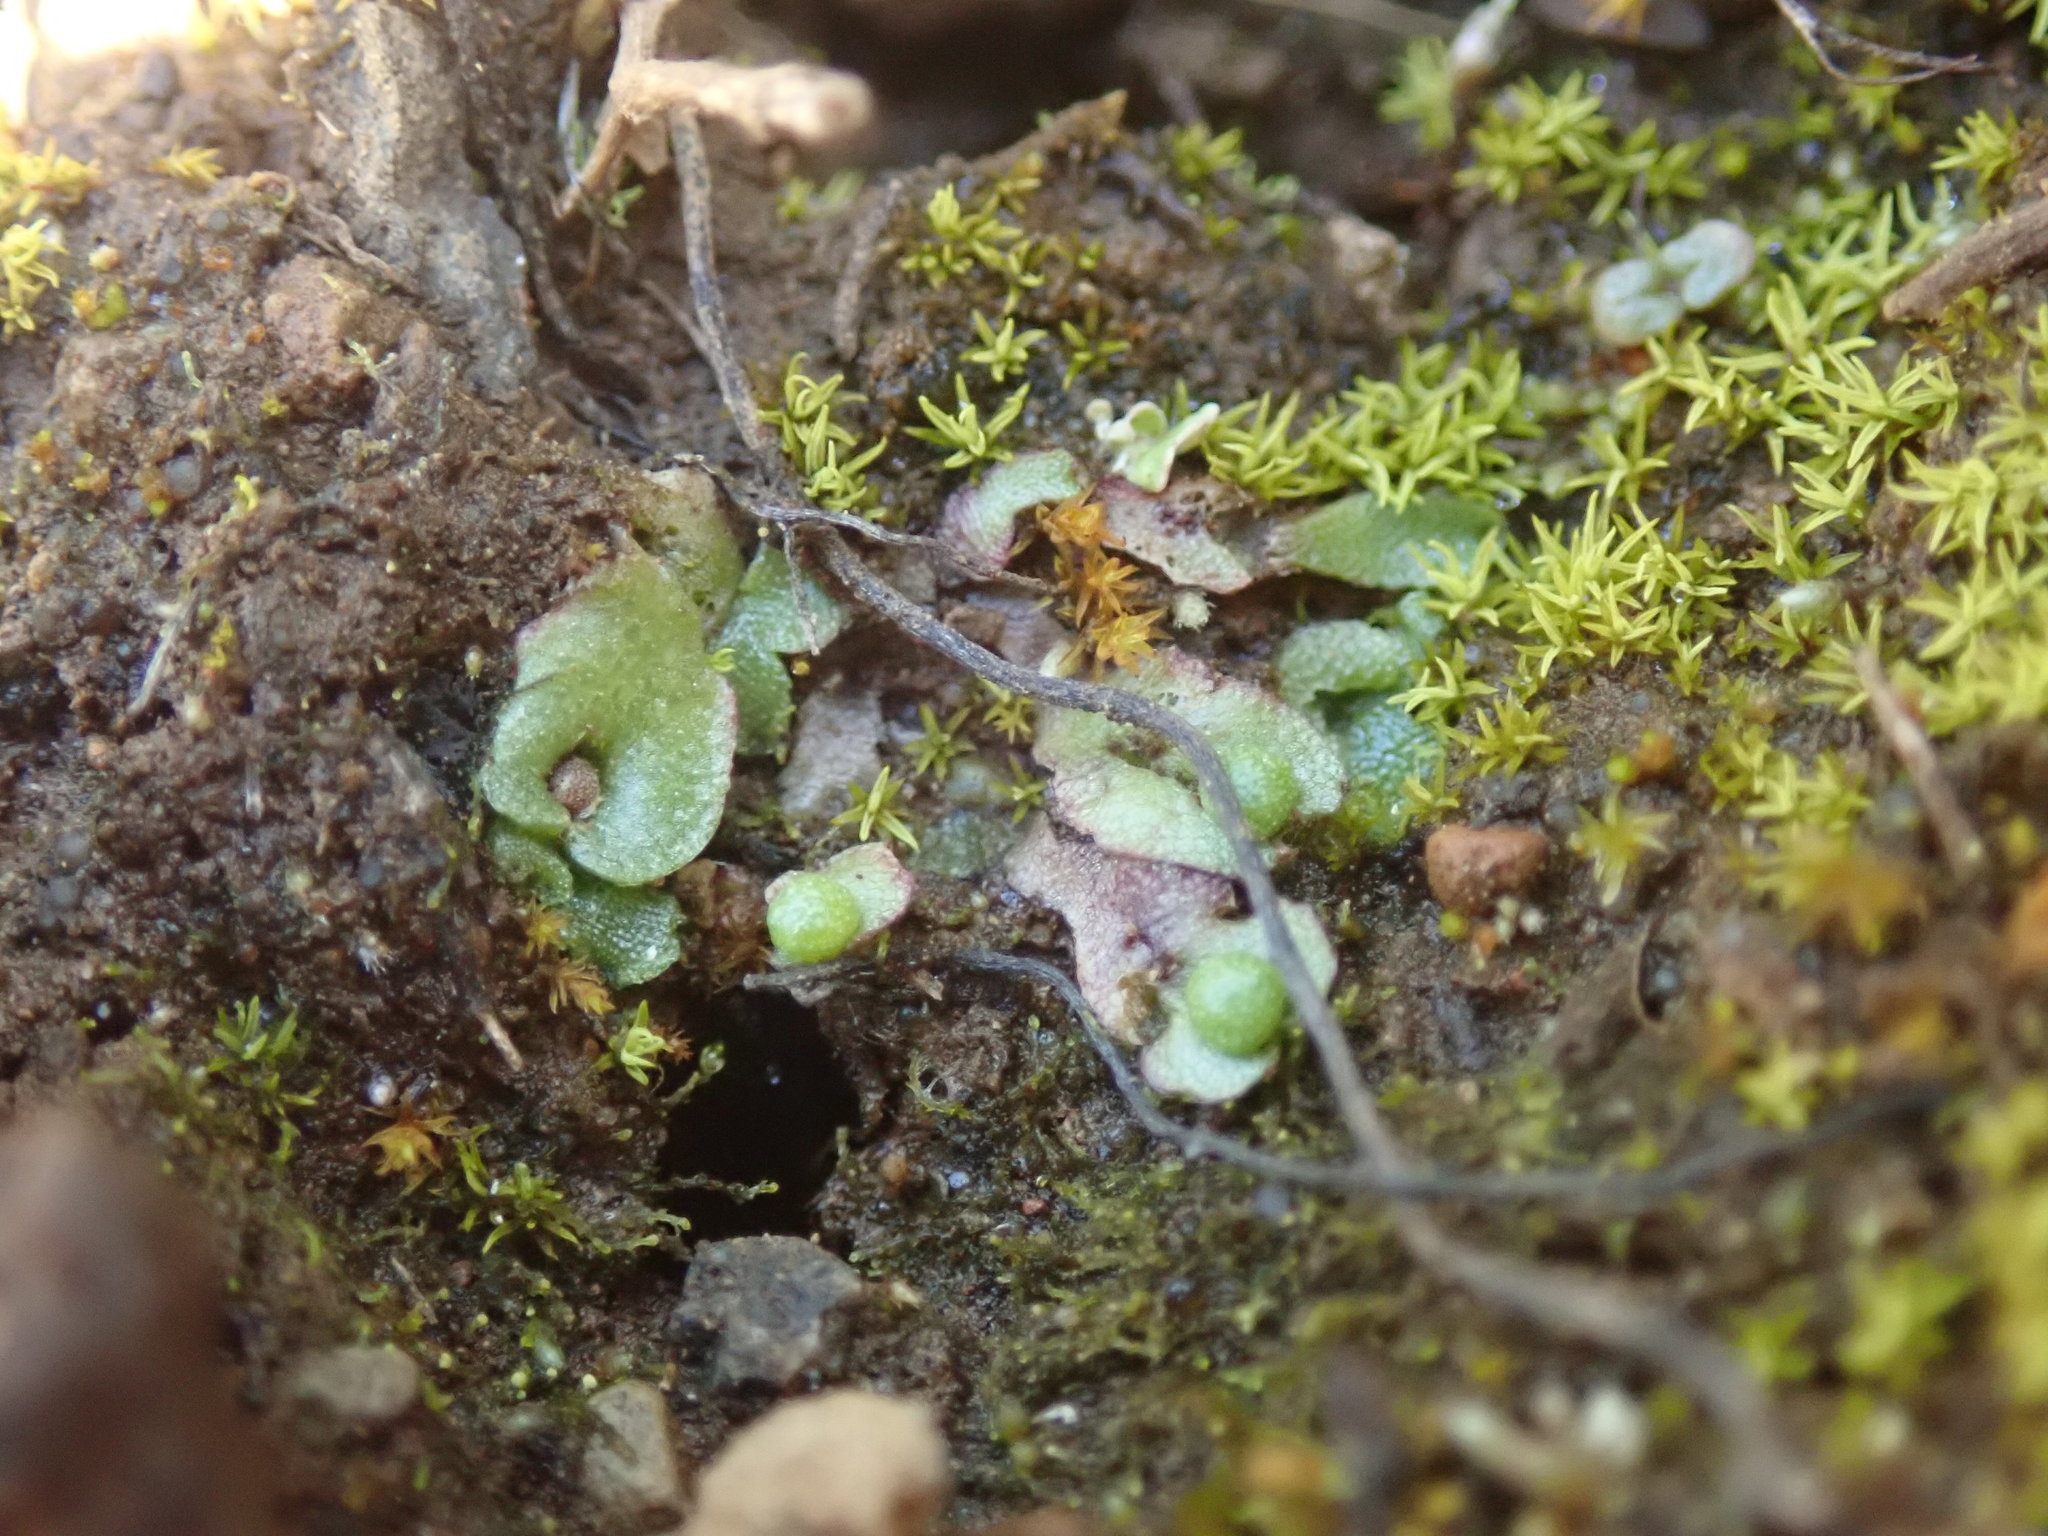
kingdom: Plantae
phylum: Marchantiophyta
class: Marchantiopsida
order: Marchantiales
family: Aytoniaceae
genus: Mannia
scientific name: Mannia gracilis
